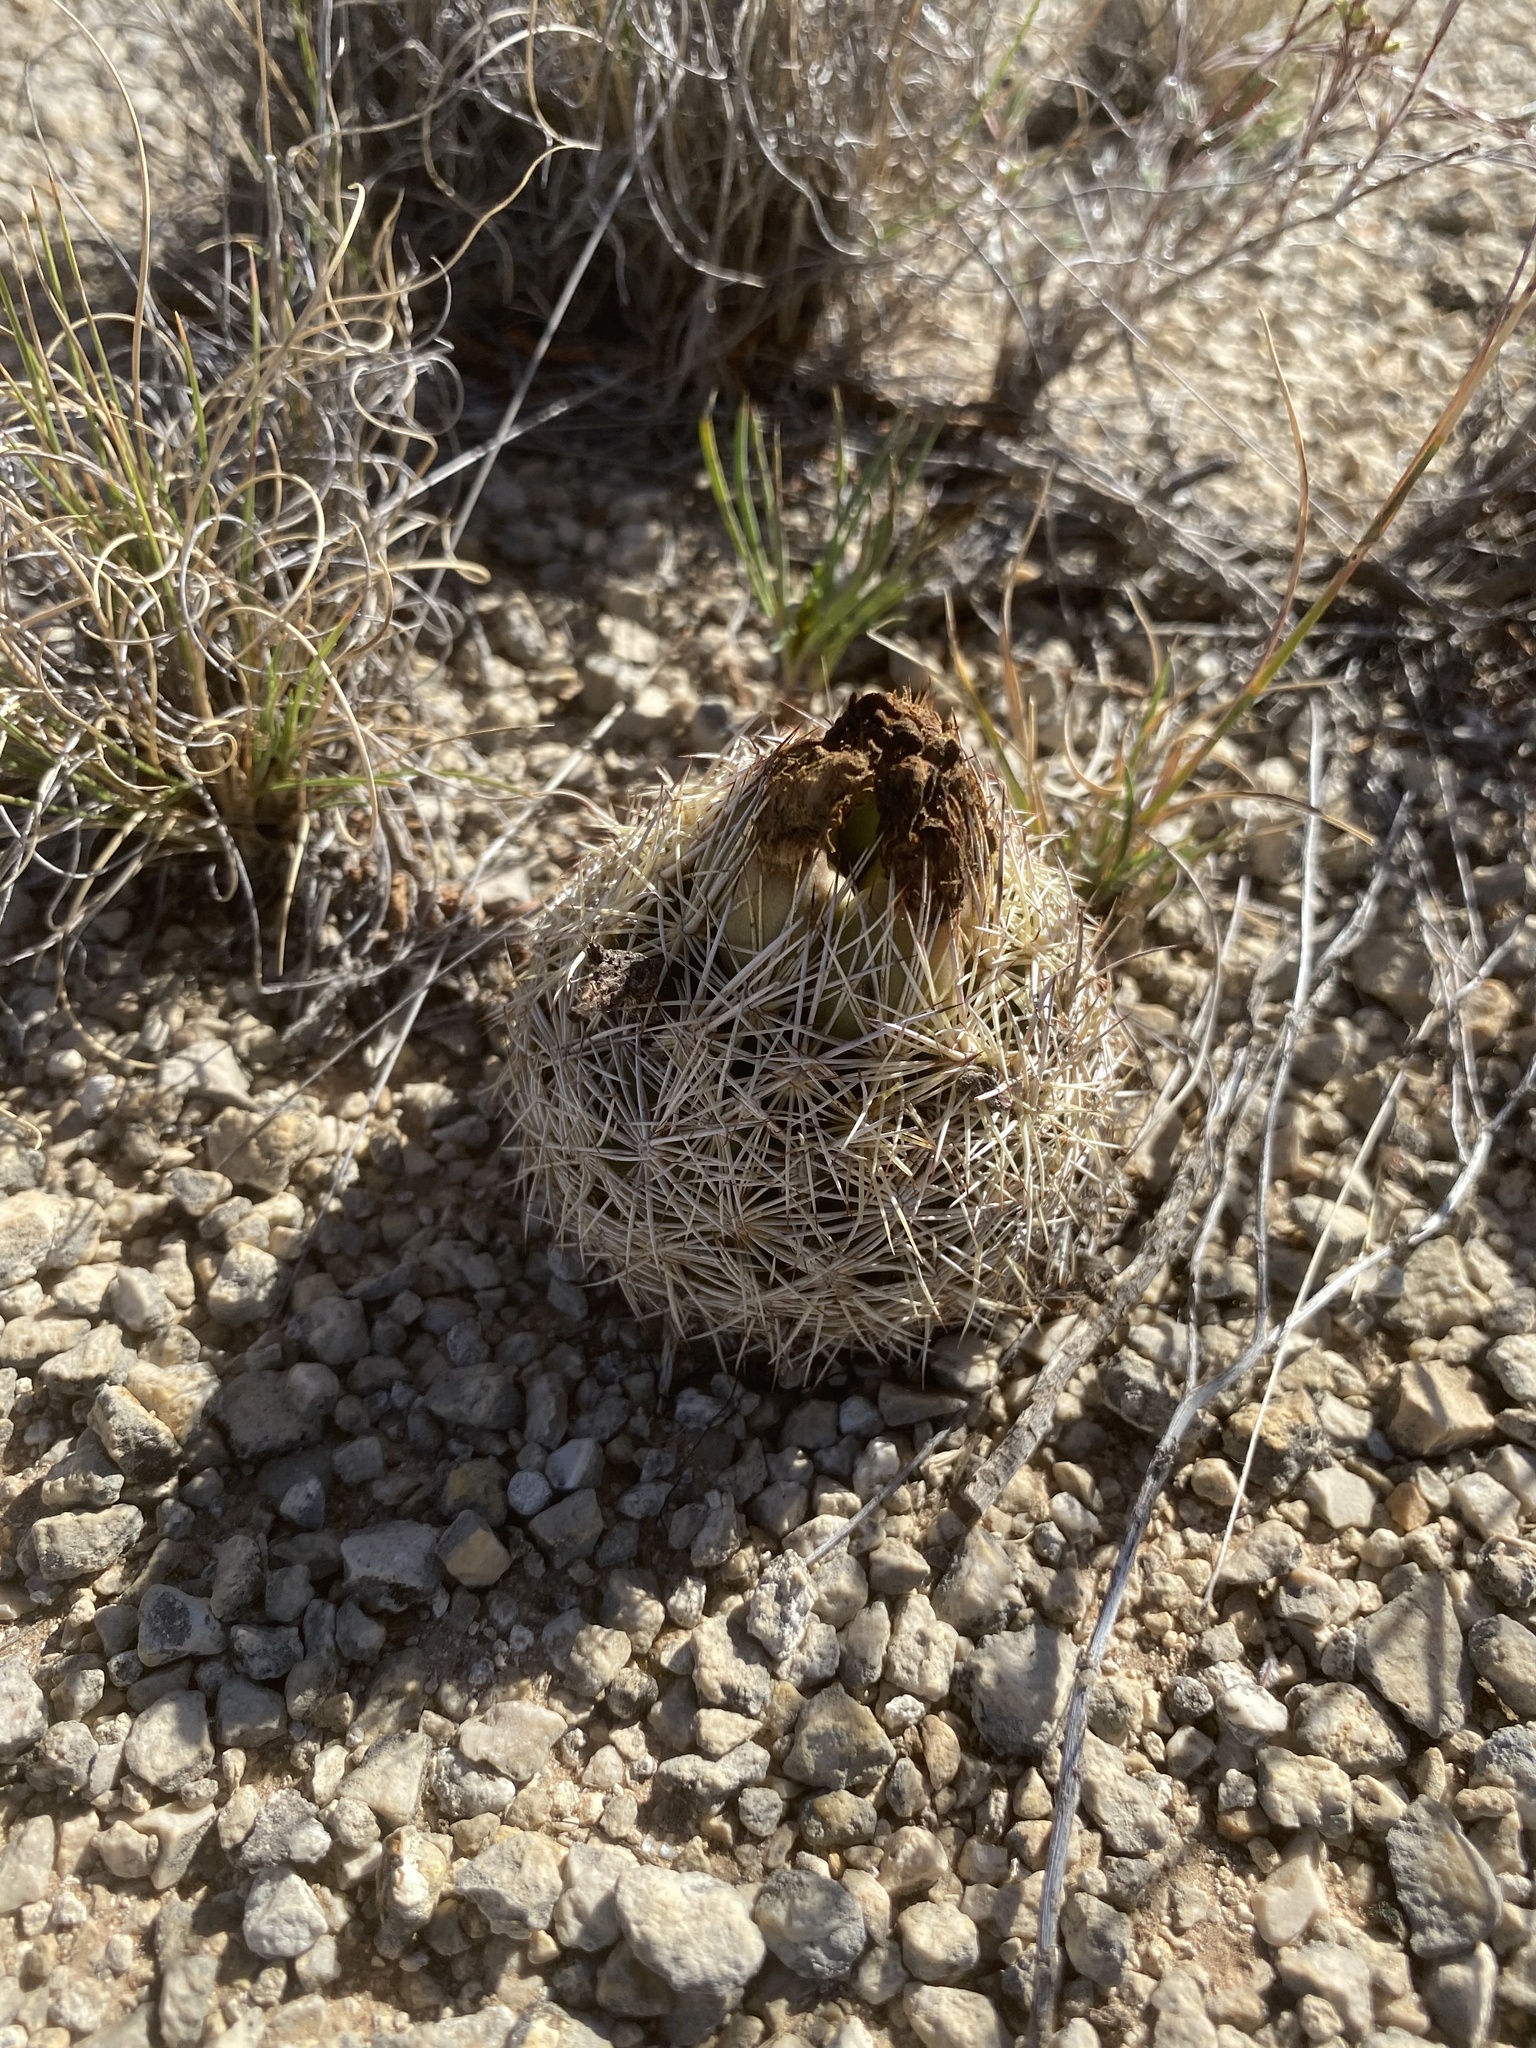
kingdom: Plantae
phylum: Tracheophyta
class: Magnoliopsida
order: Caryophyllales
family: Cactaceae
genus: Coryphantha
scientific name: Coryphantha echinus
